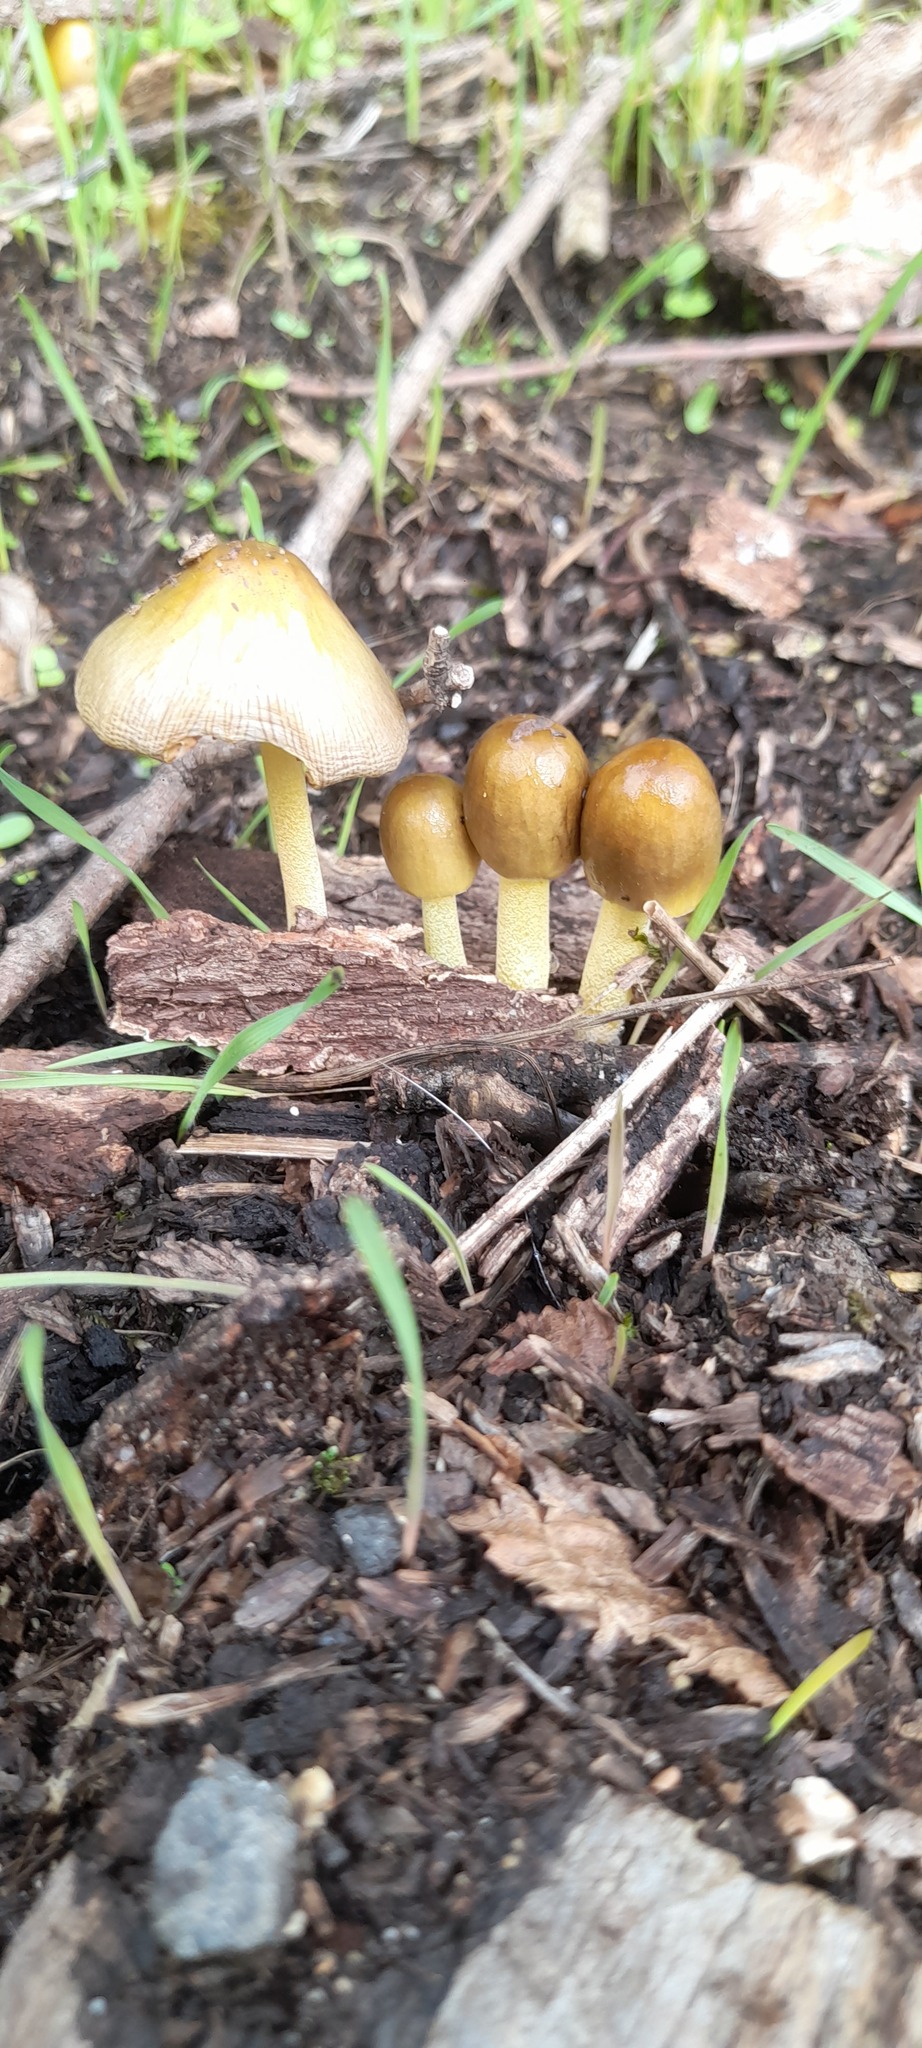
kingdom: Fungi
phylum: Basidiomycota
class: Agaricomycetes
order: Agaricales
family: Bolbitiaceae
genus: Bolbitius
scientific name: Bolbitius titubans
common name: Yellow fieldcap
